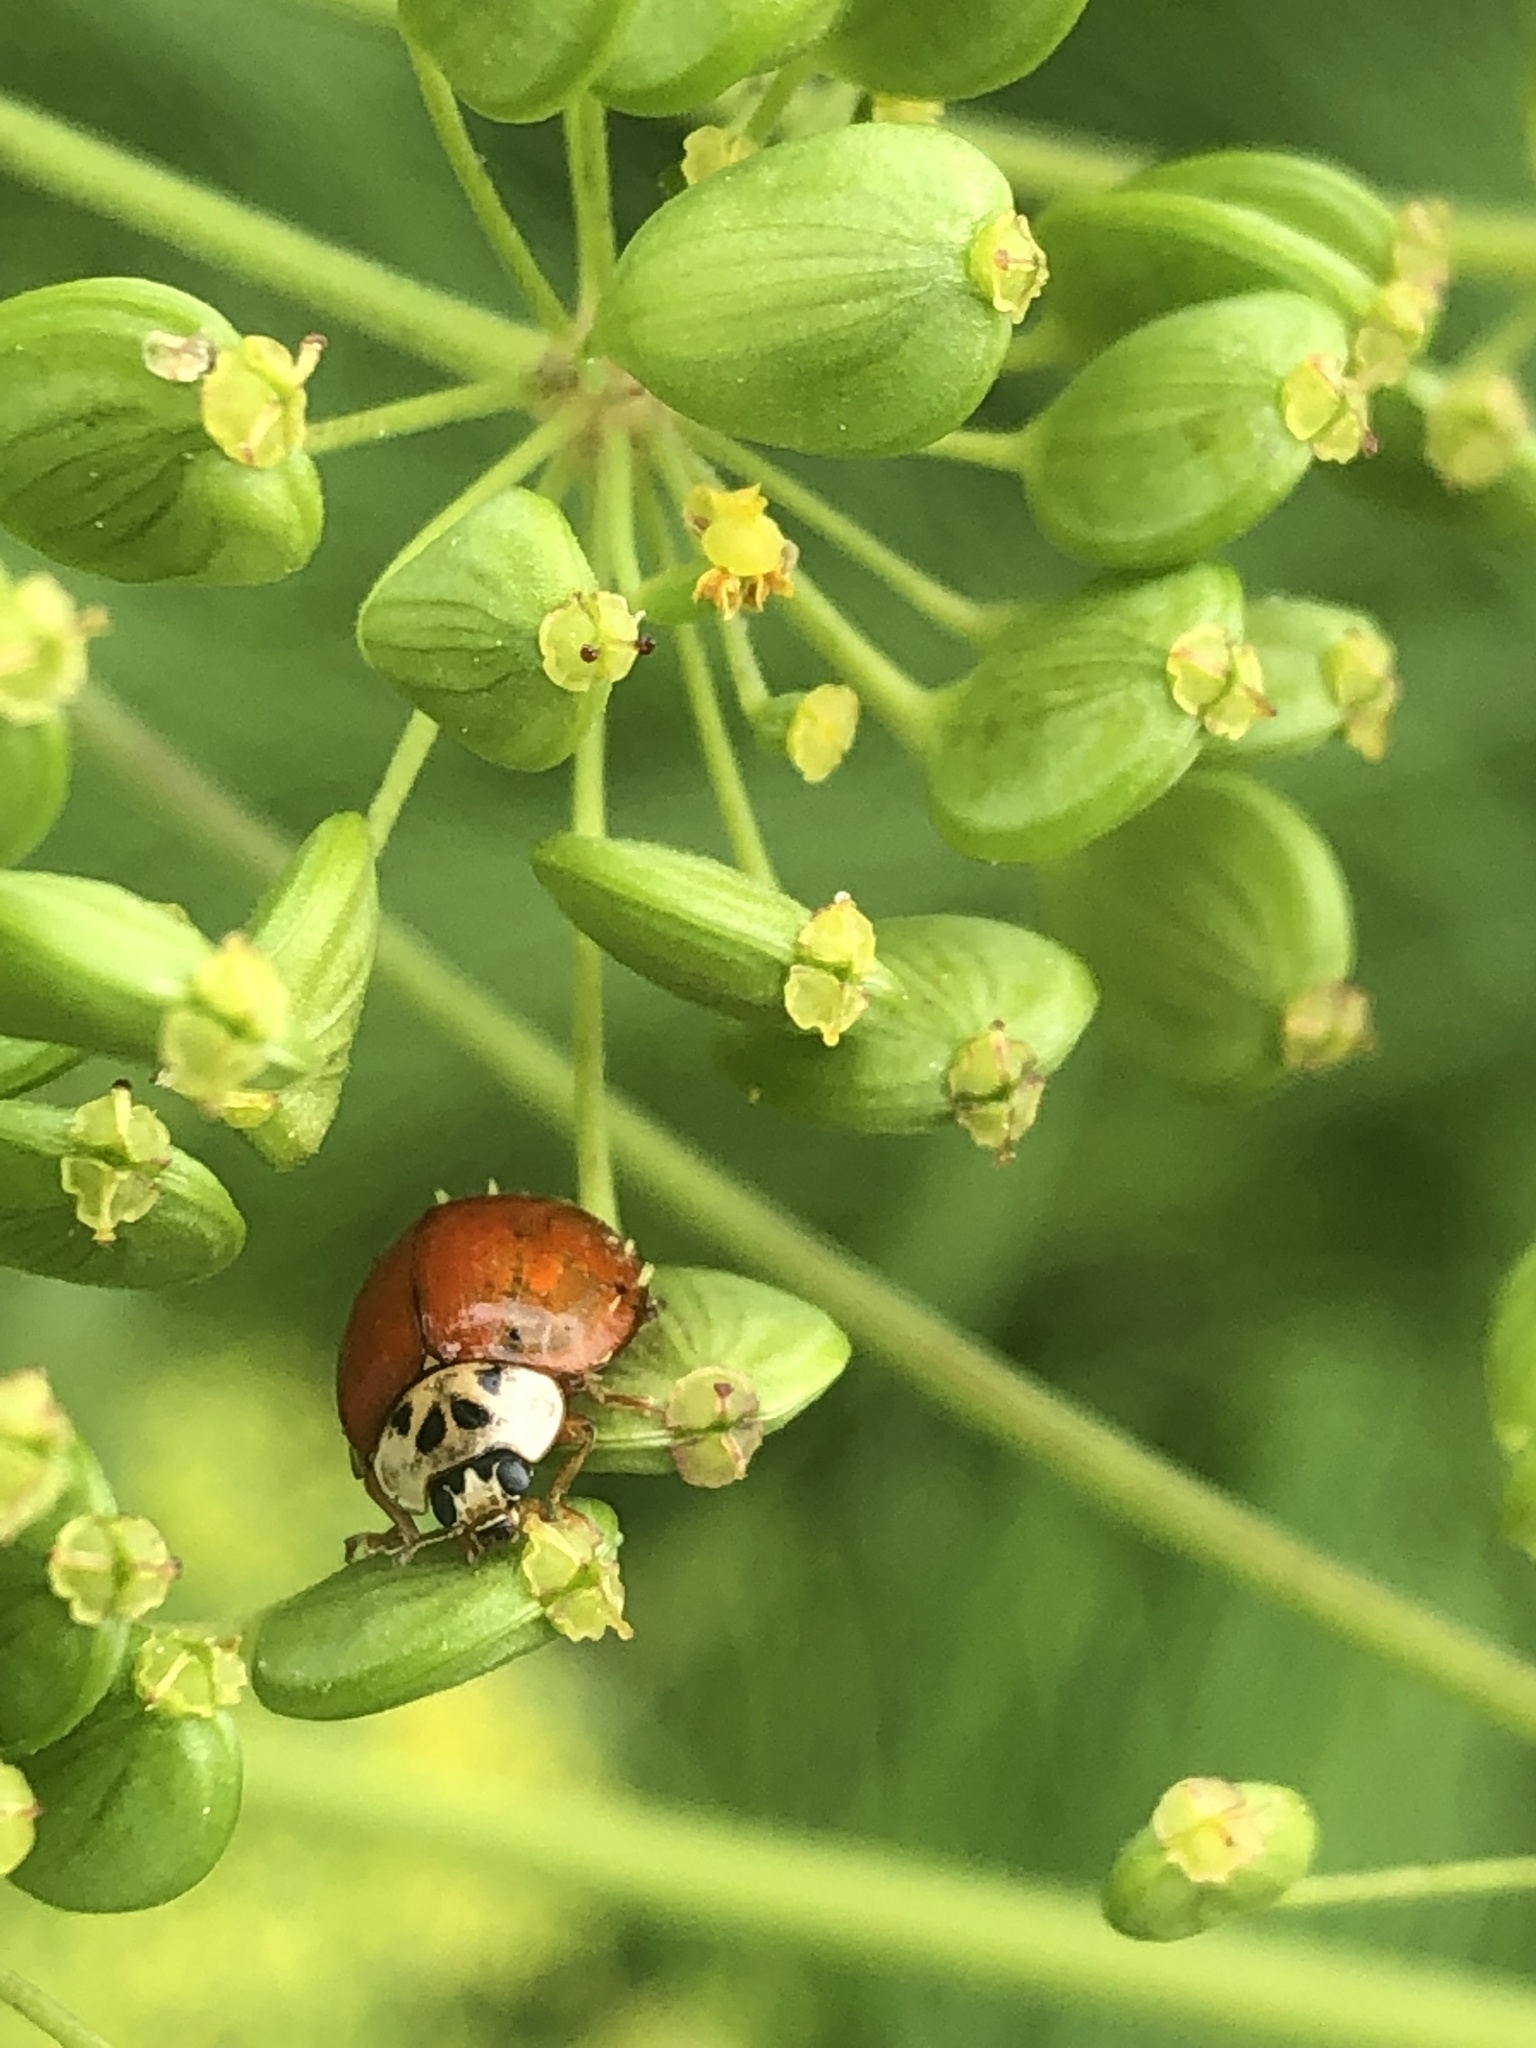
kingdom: Animalia
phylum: Arthropoda
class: Insecta
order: Coleoptera
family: Coccinellidae
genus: Harmonia
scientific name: Harmonia axyridis
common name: Harlequin ladybird
